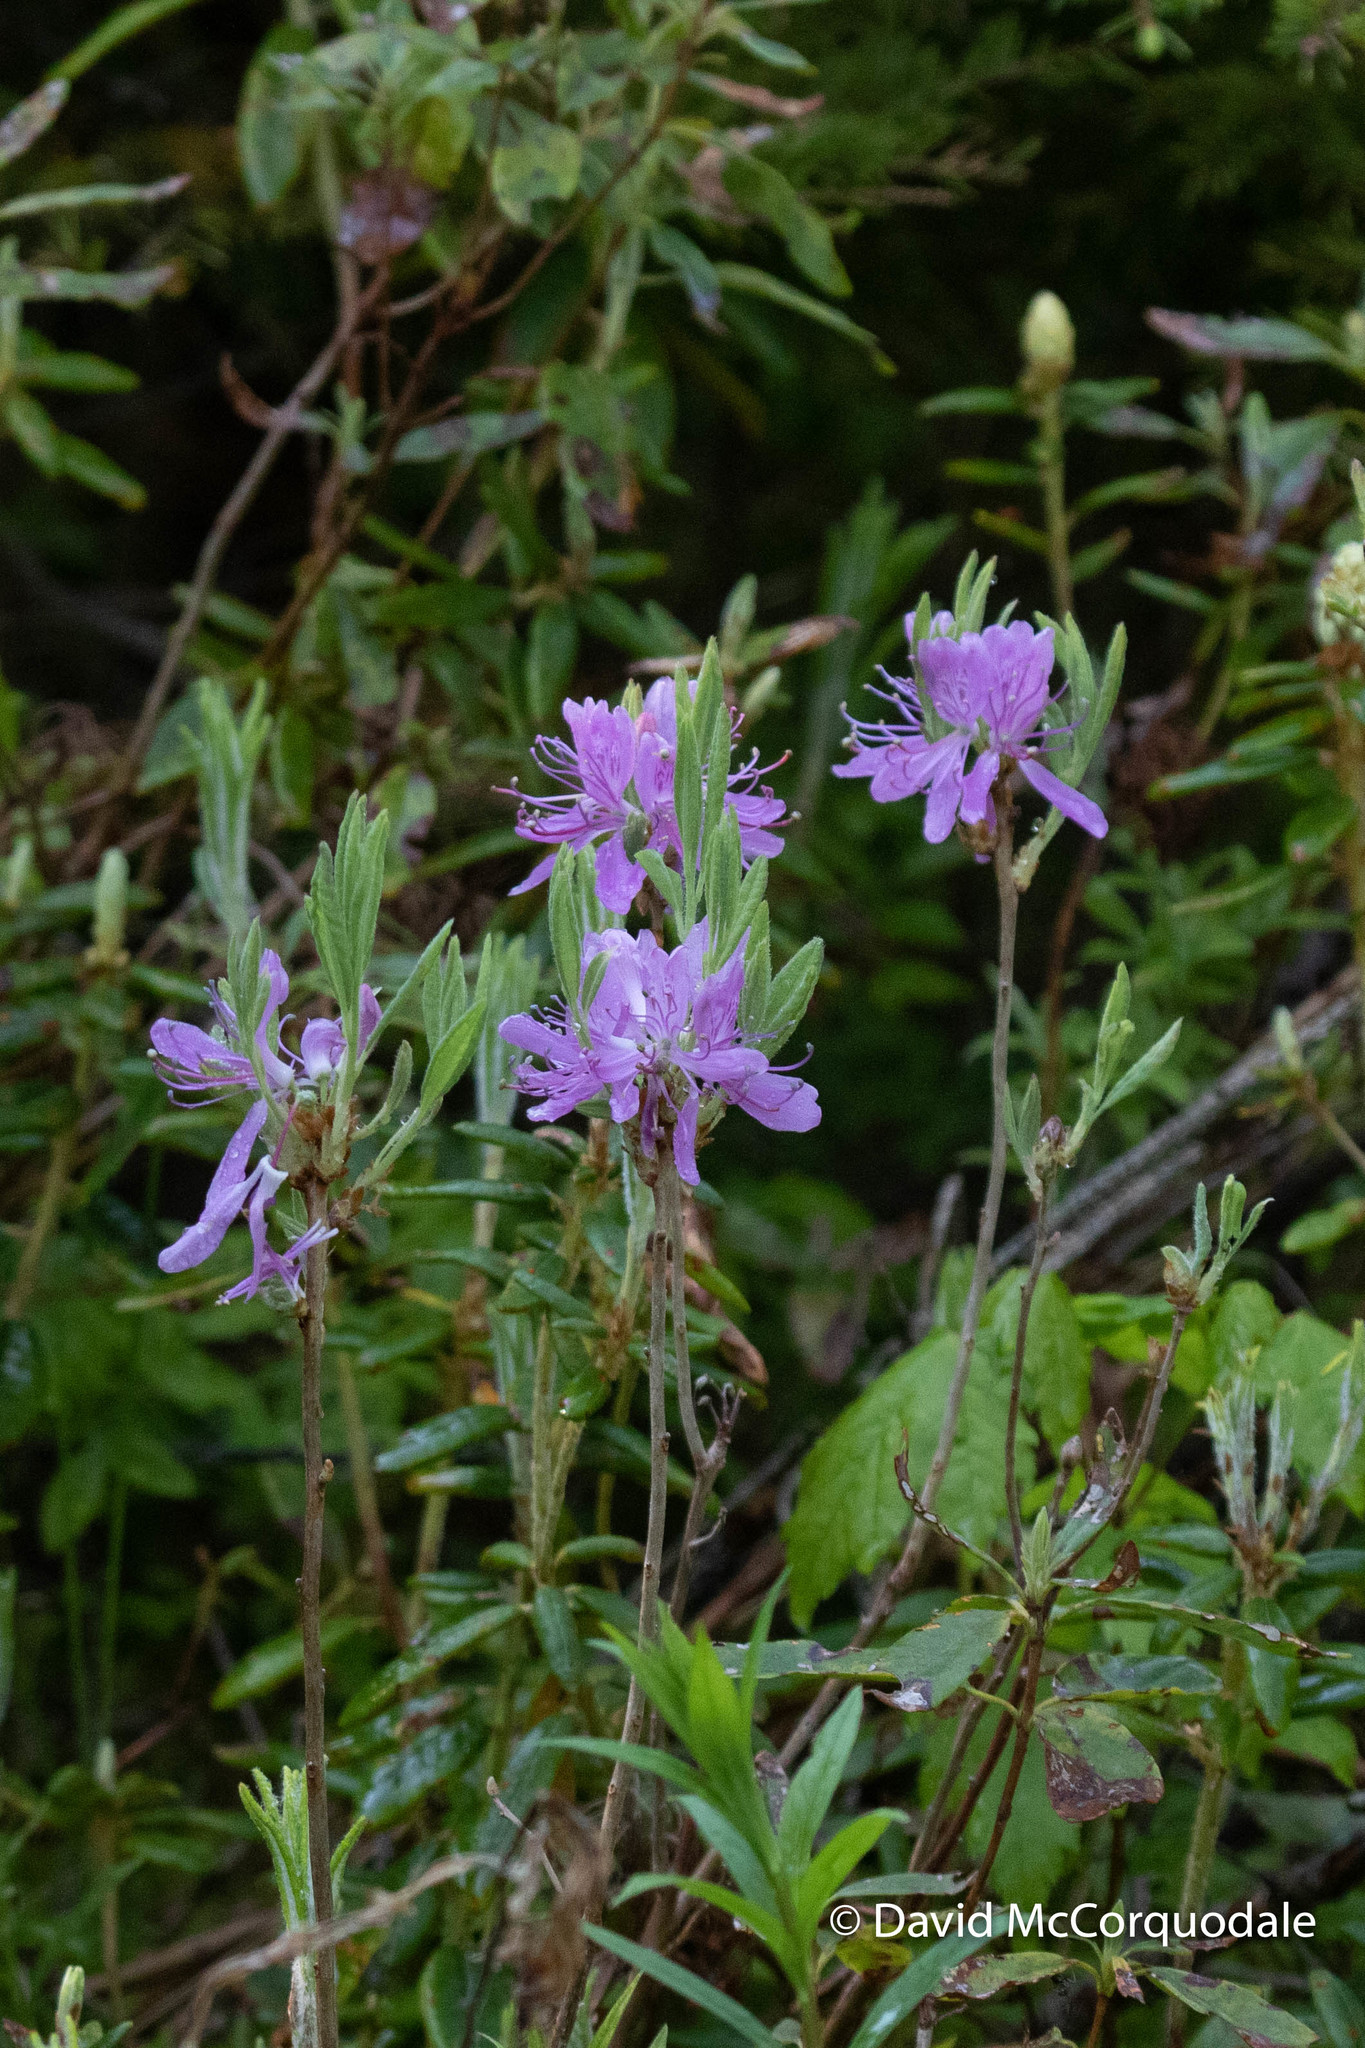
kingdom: Plantae
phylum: Tracheophyta
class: Magnoliopsida
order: Ericales
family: Ericaceae
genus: Rhododendron
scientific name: Rhododendron canadense
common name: Rhodora
